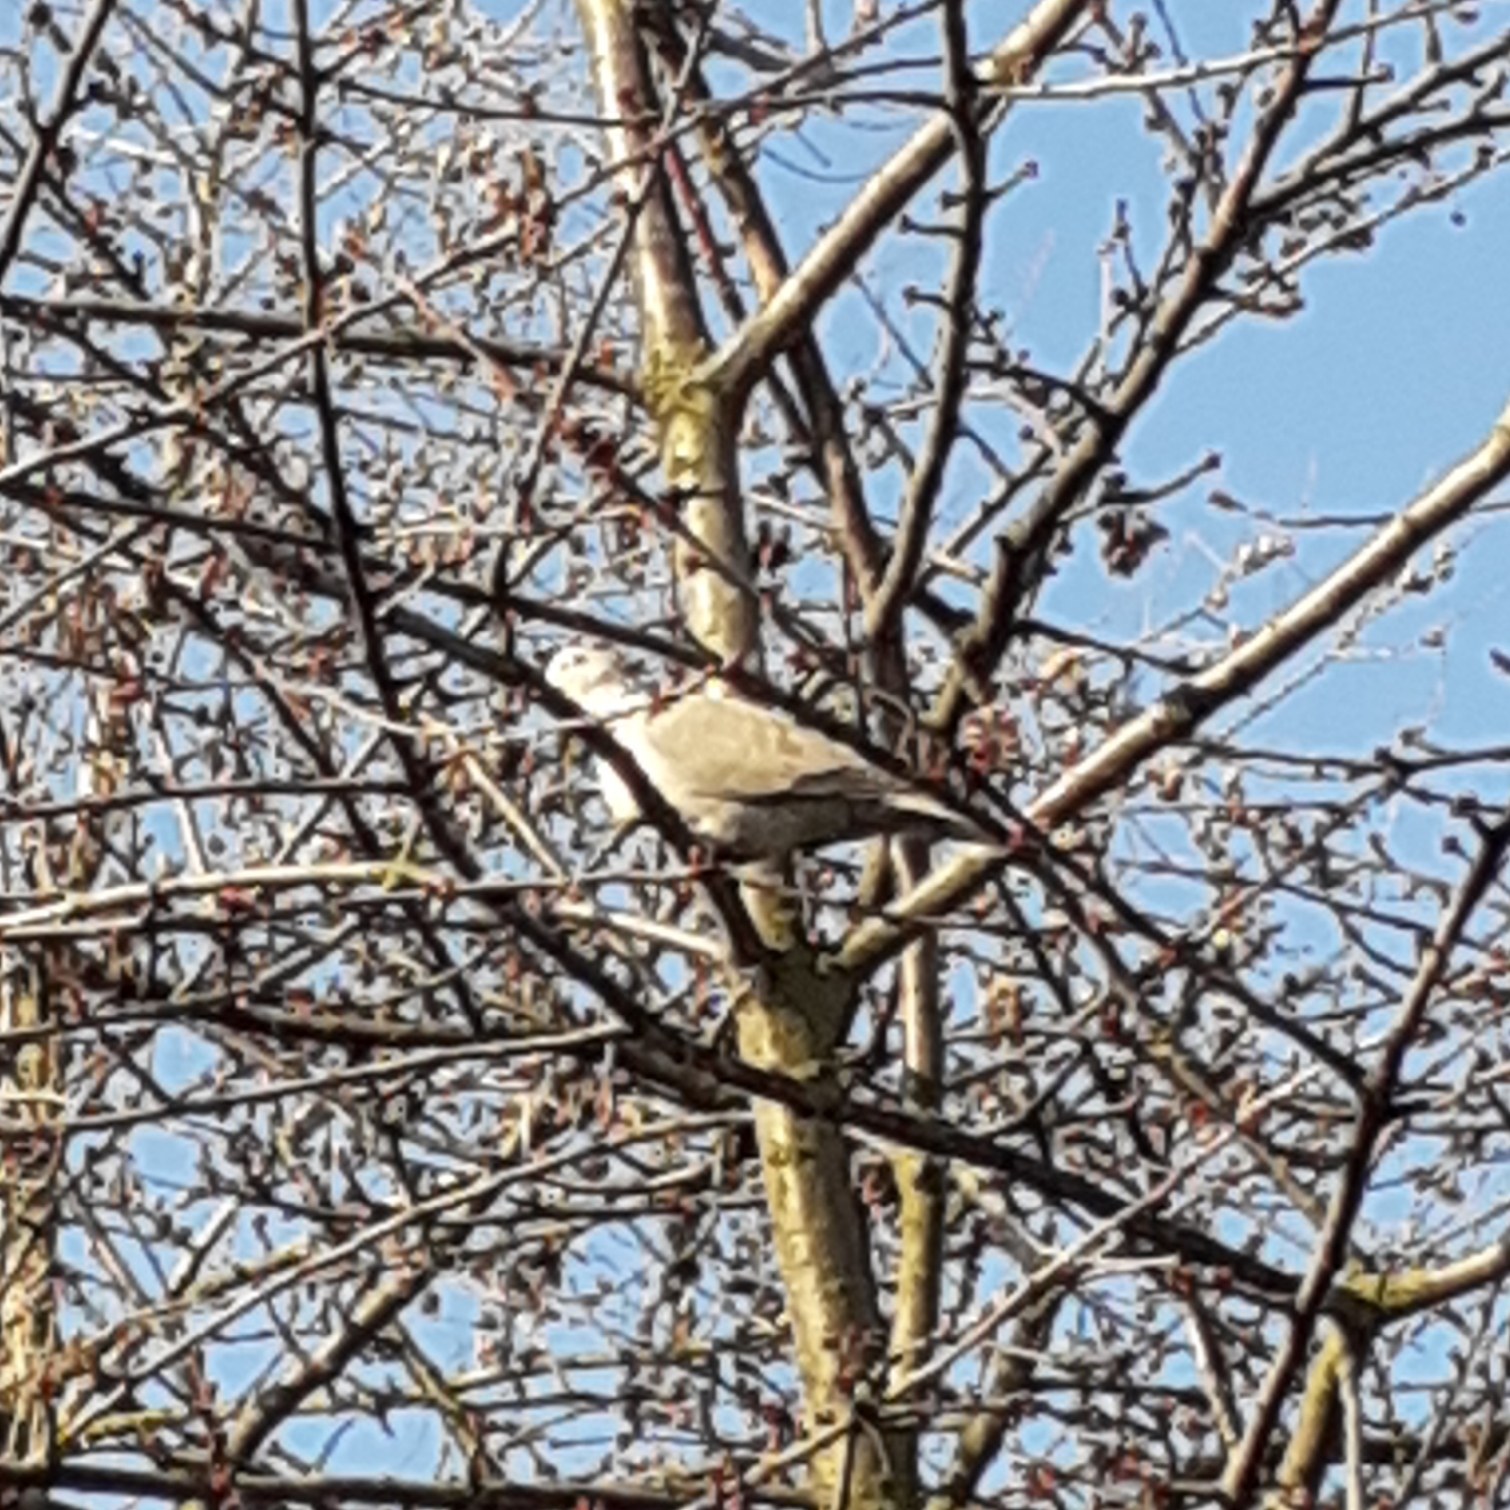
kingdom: Animalia
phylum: Chordata
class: Aves
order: Columbiformes
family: Columbidae
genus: Streptopelia
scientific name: Streptopelia decaocto
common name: Eurasian collared dove
